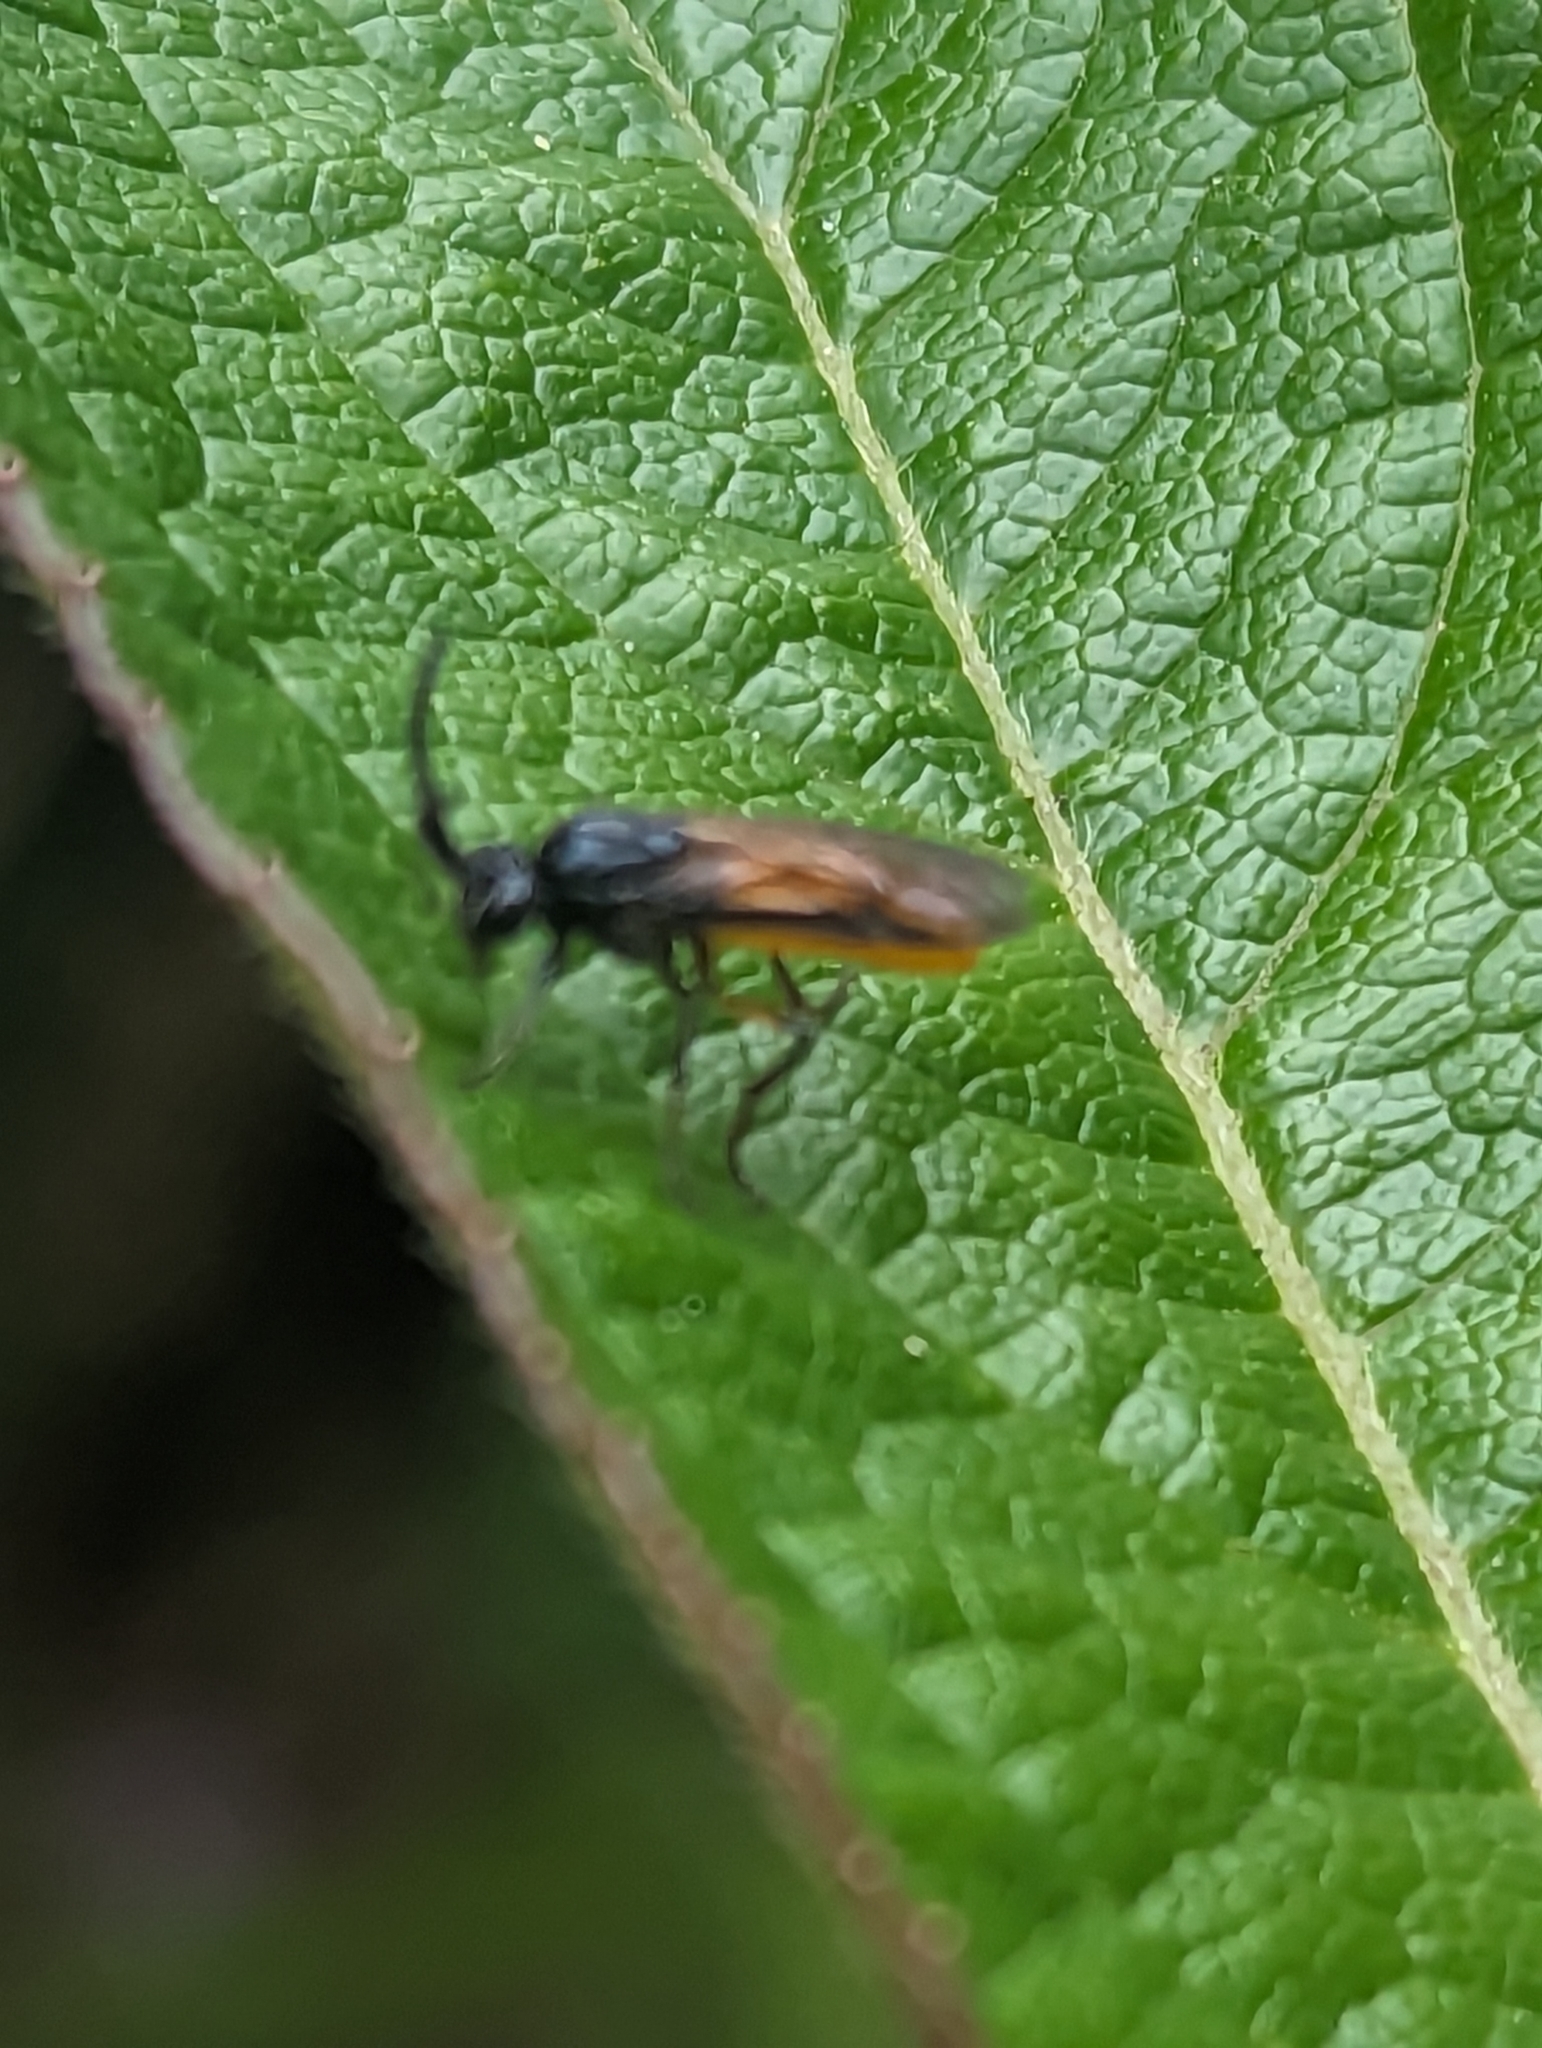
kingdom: Animalia
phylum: Arthropoda
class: Insecta
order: Hymenoptera
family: Argidae
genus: Arge
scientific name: Arge pagana
